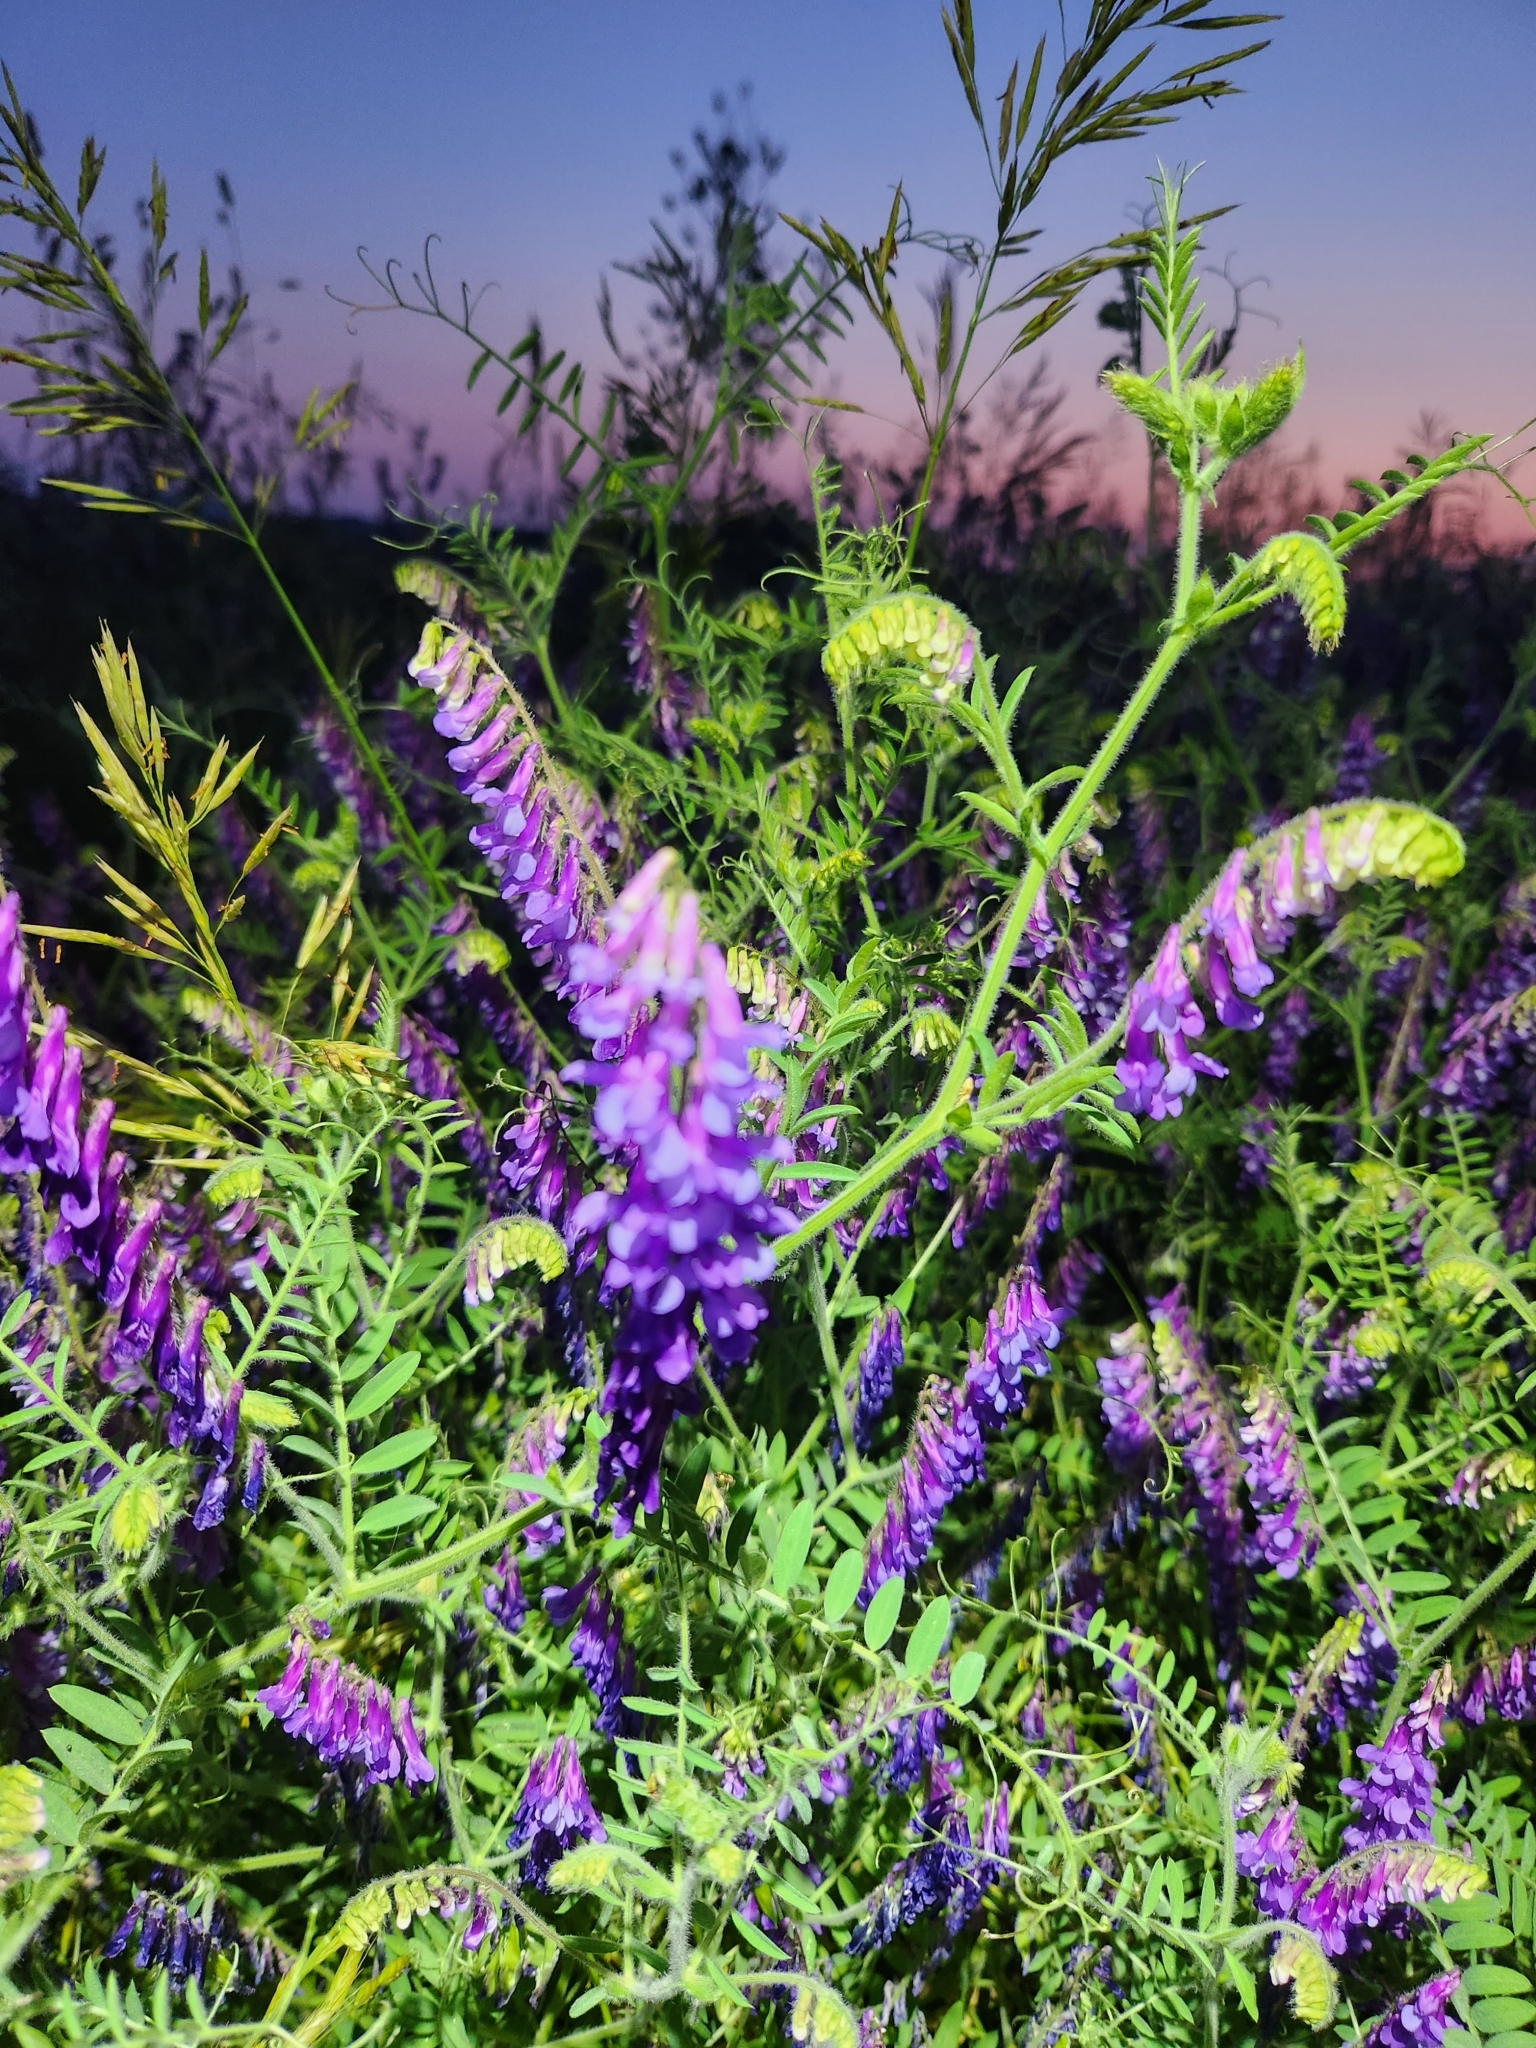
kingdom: Plantae
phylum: Tracheophyta
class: Magnoliopsida
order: Fabales
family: Fabaceae
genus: Vicia
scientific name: Vicia villosa
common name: Fodder vetch
